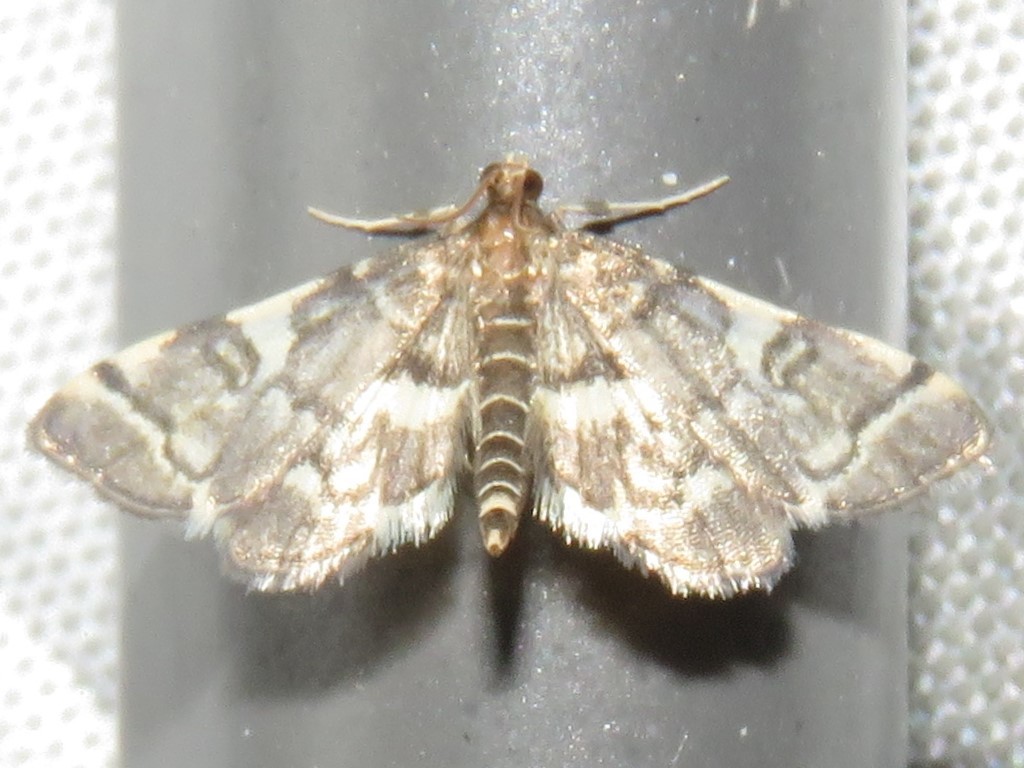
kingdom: Animalia
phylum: Arthropoda
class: Insecta
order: Lepidoptera
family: Crambidae
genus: Anageshna
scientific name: Anageshna primordialis
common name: Yellow-spotted webworm moth
